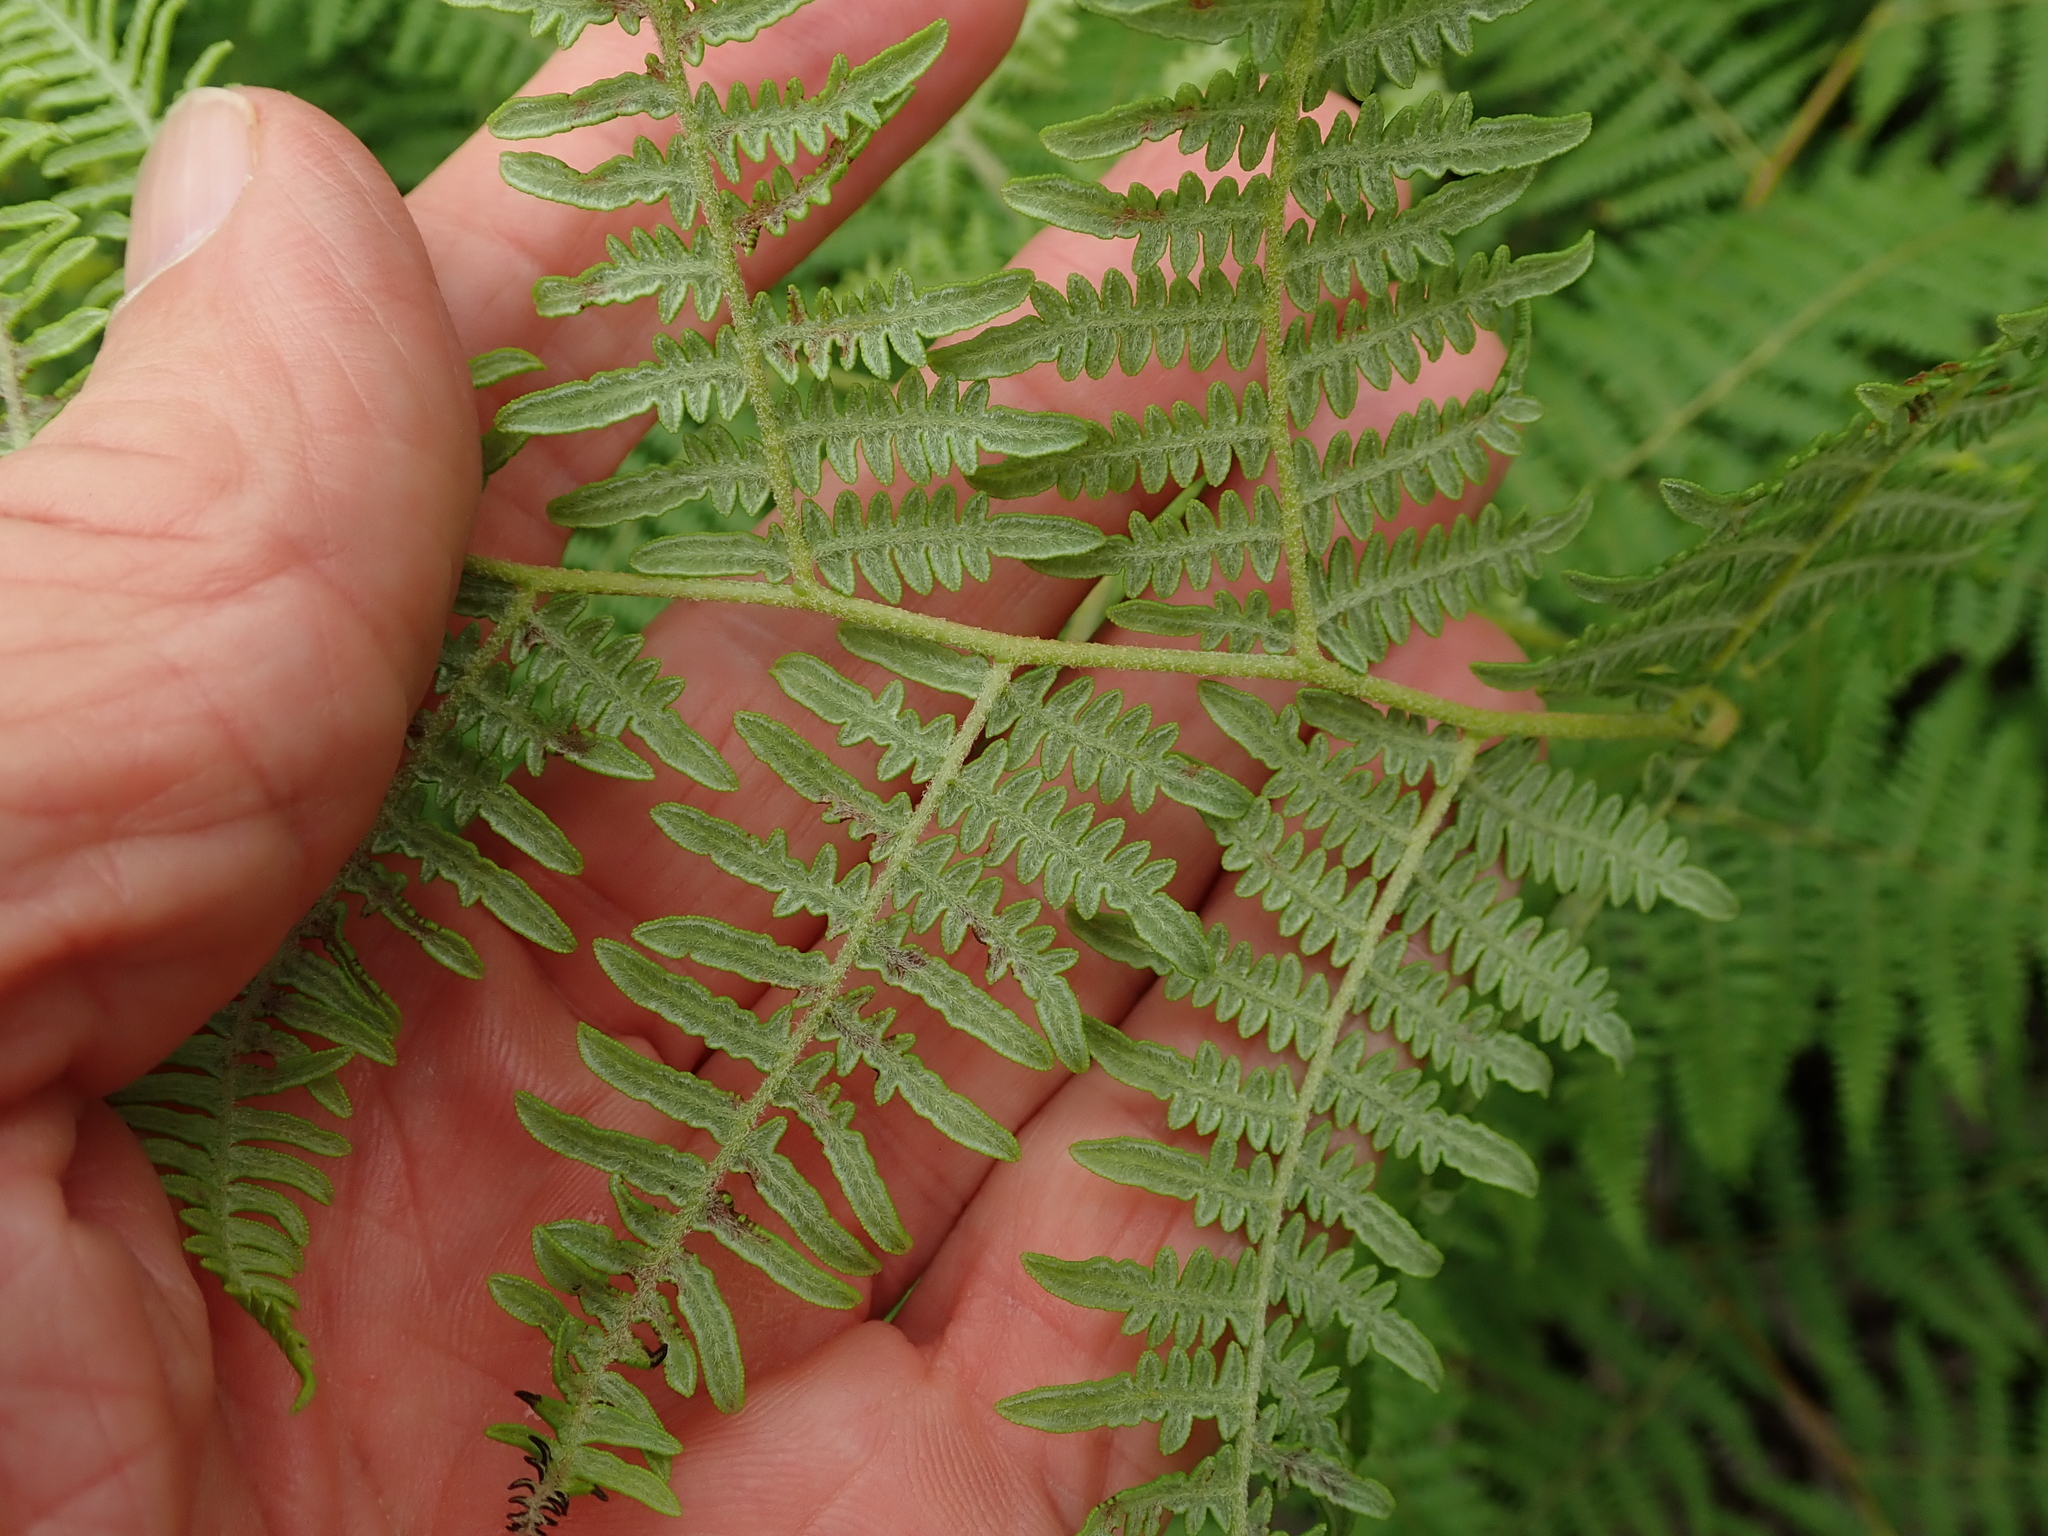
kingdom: Plantae
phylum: Tracheophyta
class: Polypodiopsida
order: Polypodiales
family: Dennstaedtiaceae
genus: Pteridium
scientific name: Pteridium aquilinum
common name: Bracken
